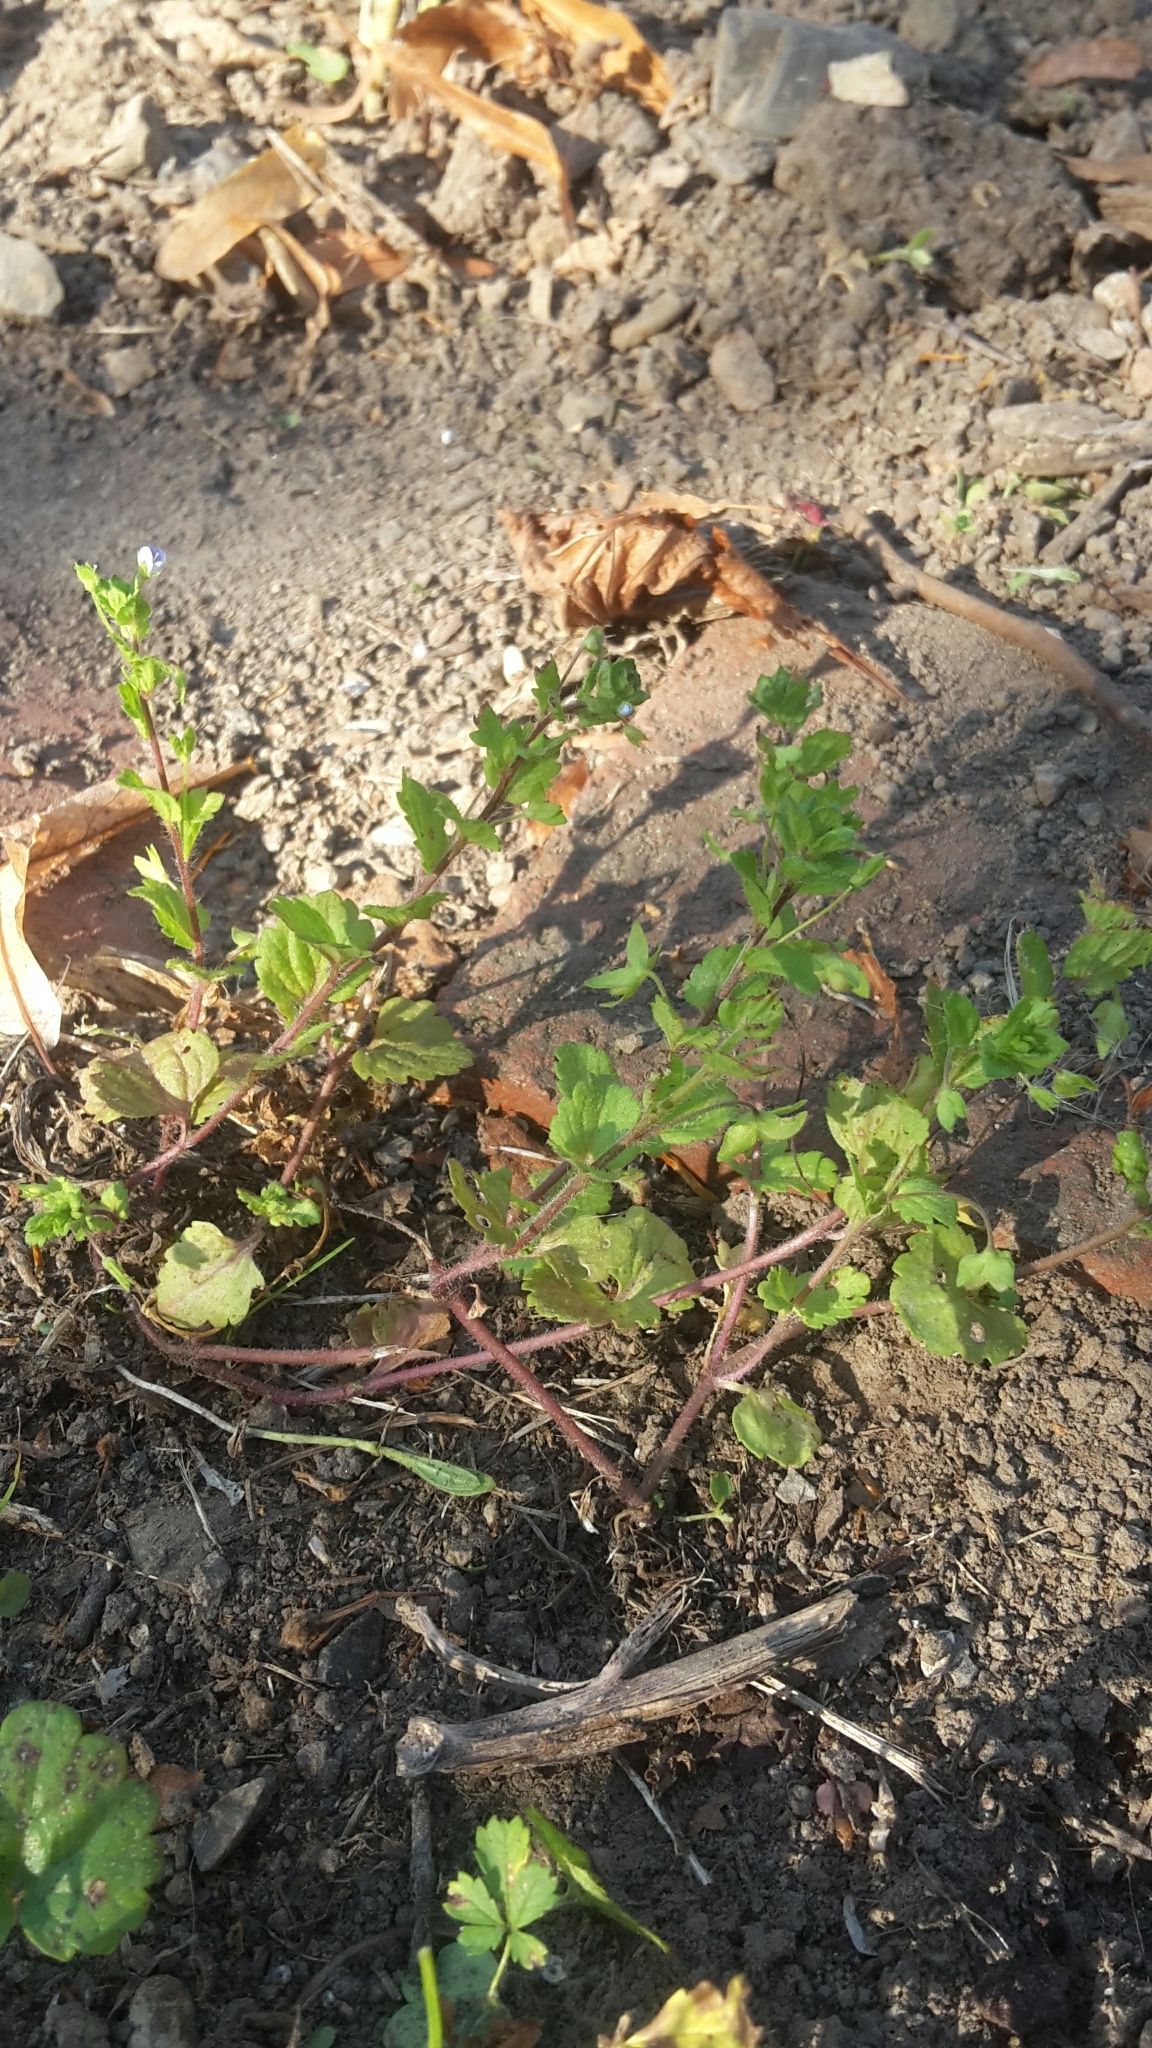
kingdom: Plantae
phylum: Tracheophyta
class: Magnoliopsida
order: Lamiales
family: Plantaginaceae
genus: Veronica
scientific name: Veronica persica
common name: Common field-speedwell
